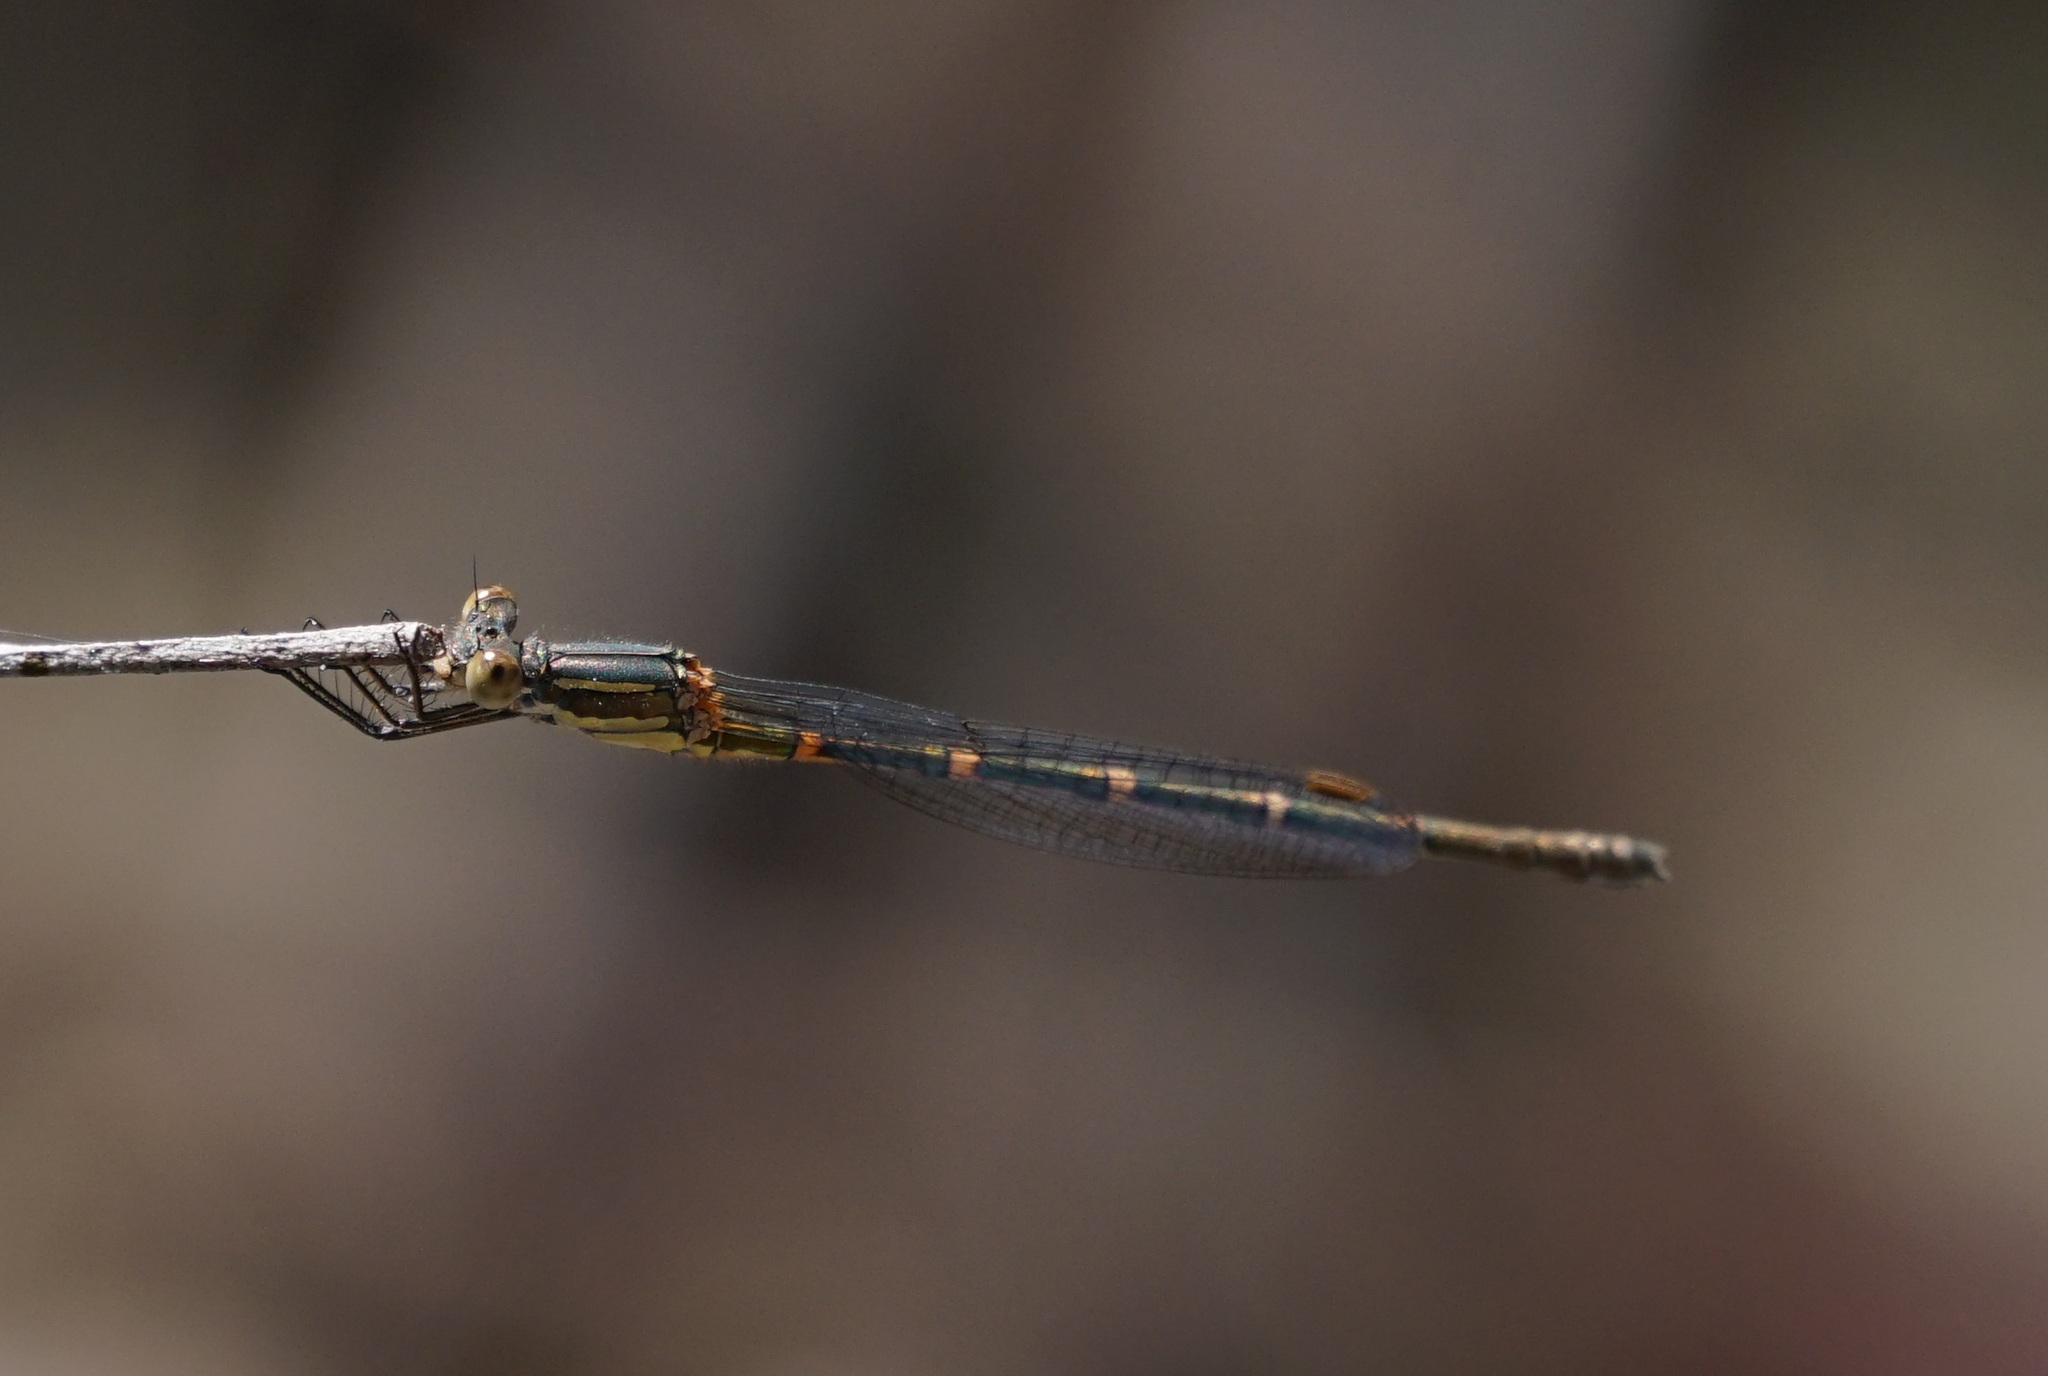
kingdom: Animalia
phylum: Arthropoda
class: Insecta
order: Odonata
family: Lestidae
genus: Austrolestes
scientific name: Austrolestes leda
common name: Wandering ringtail
